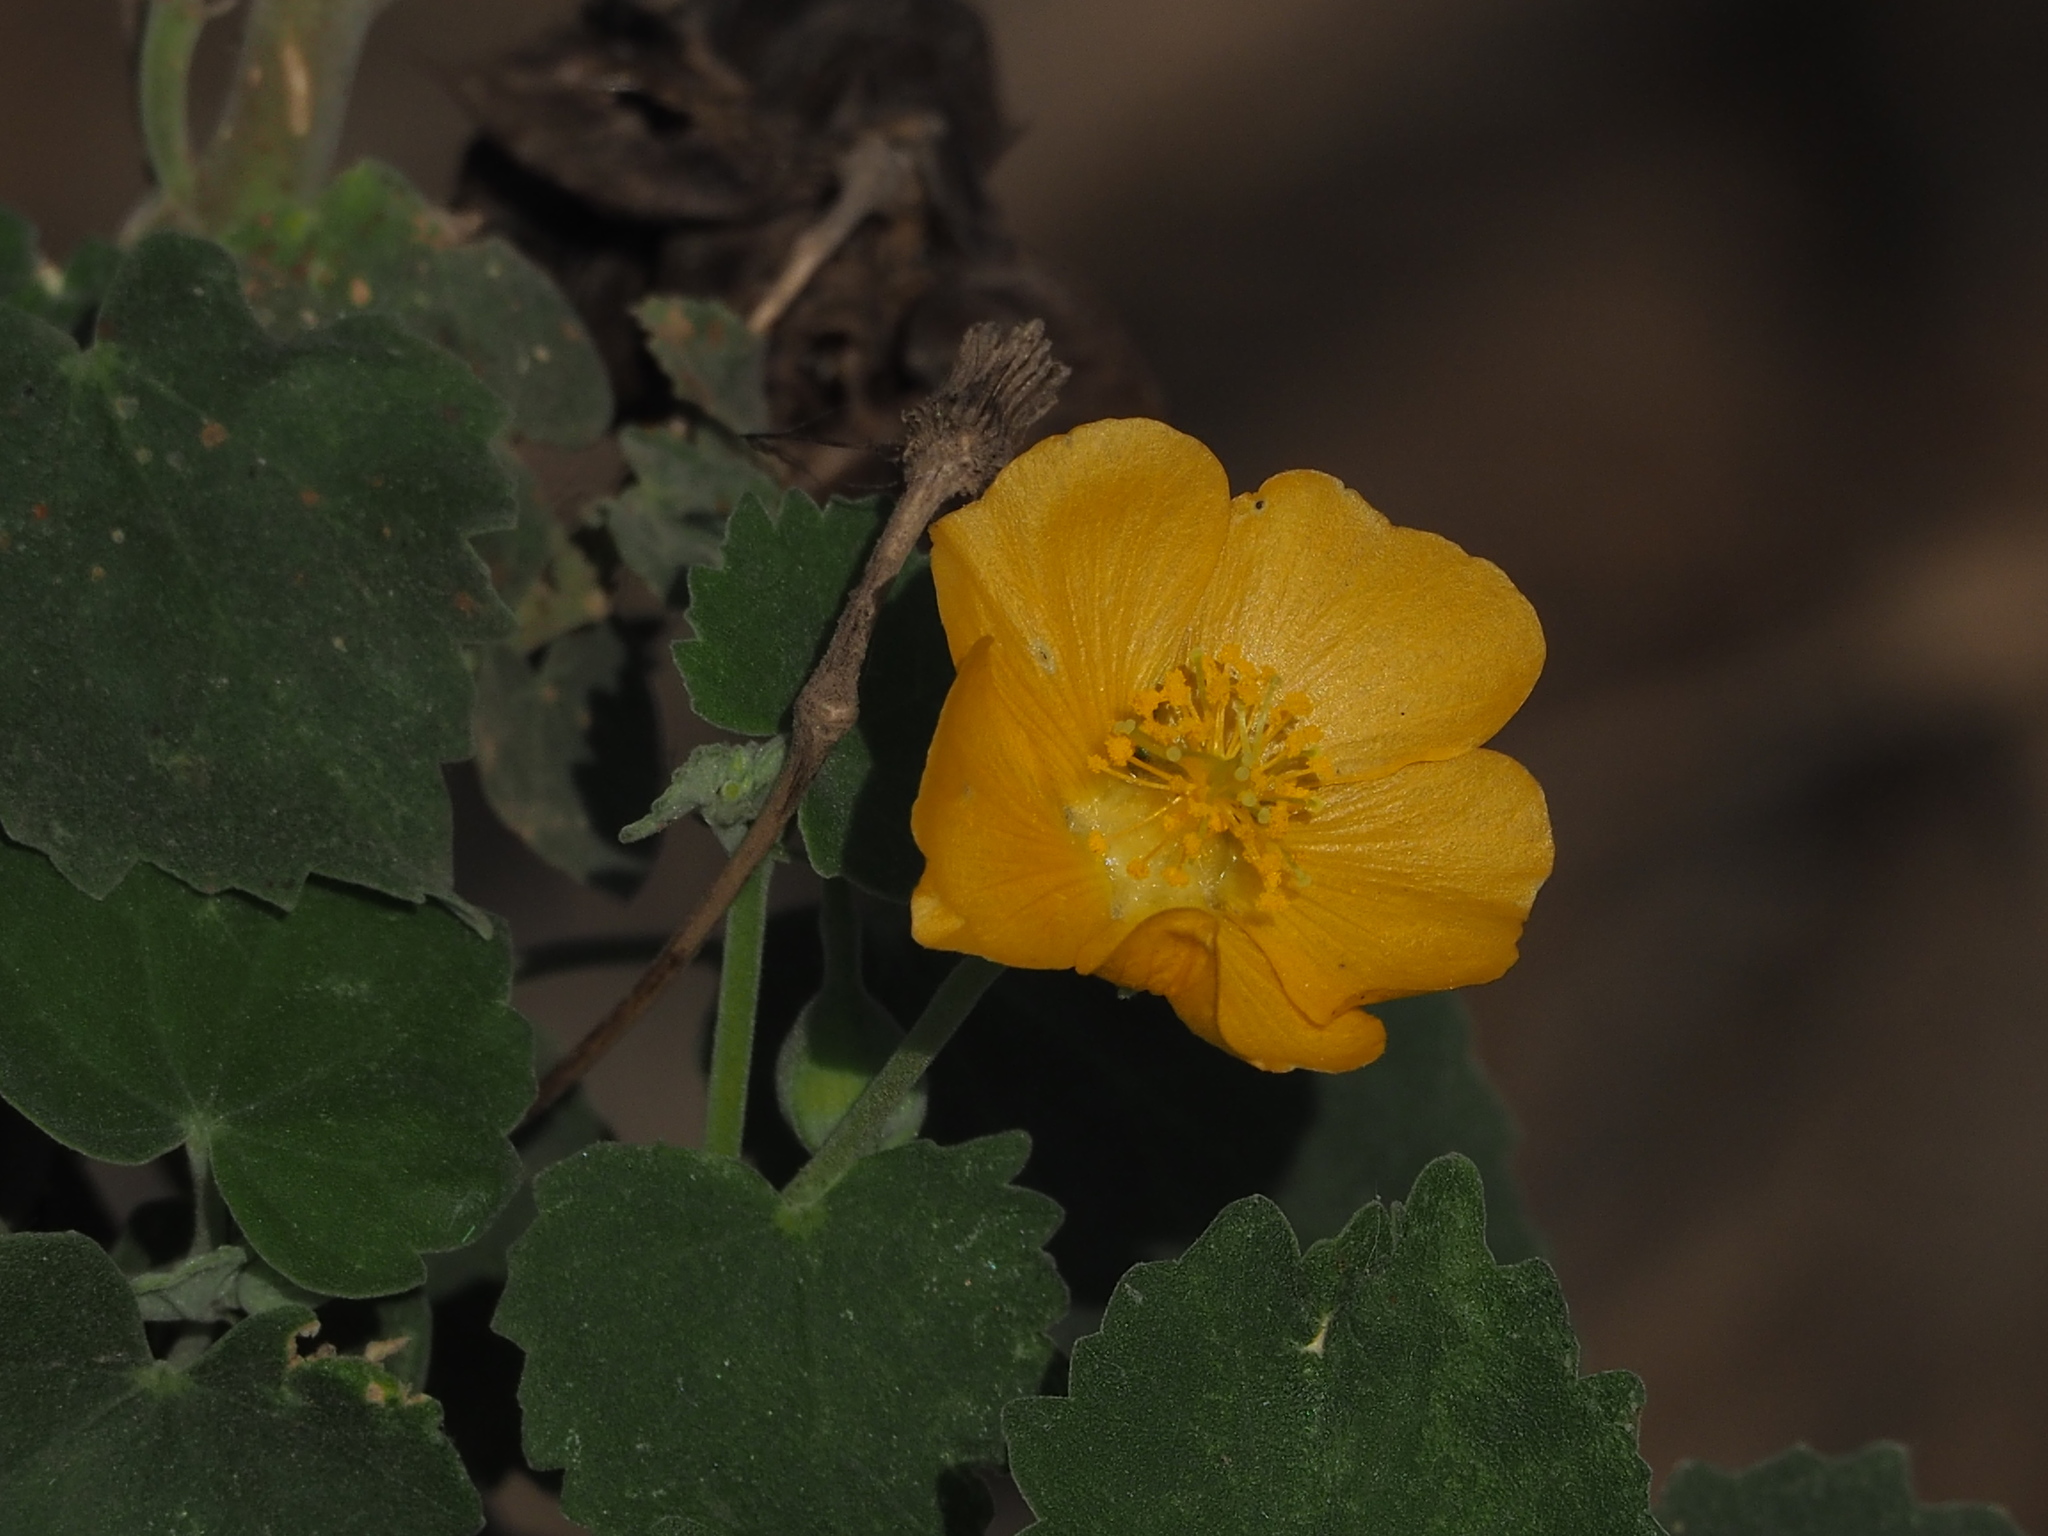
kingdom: Plantae
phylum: Tracheophyta
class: Magnoliopsida
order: Malvales
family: Malvaceae
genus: Abutilon
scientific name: Abutilon indicum
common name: Indian abutilon
